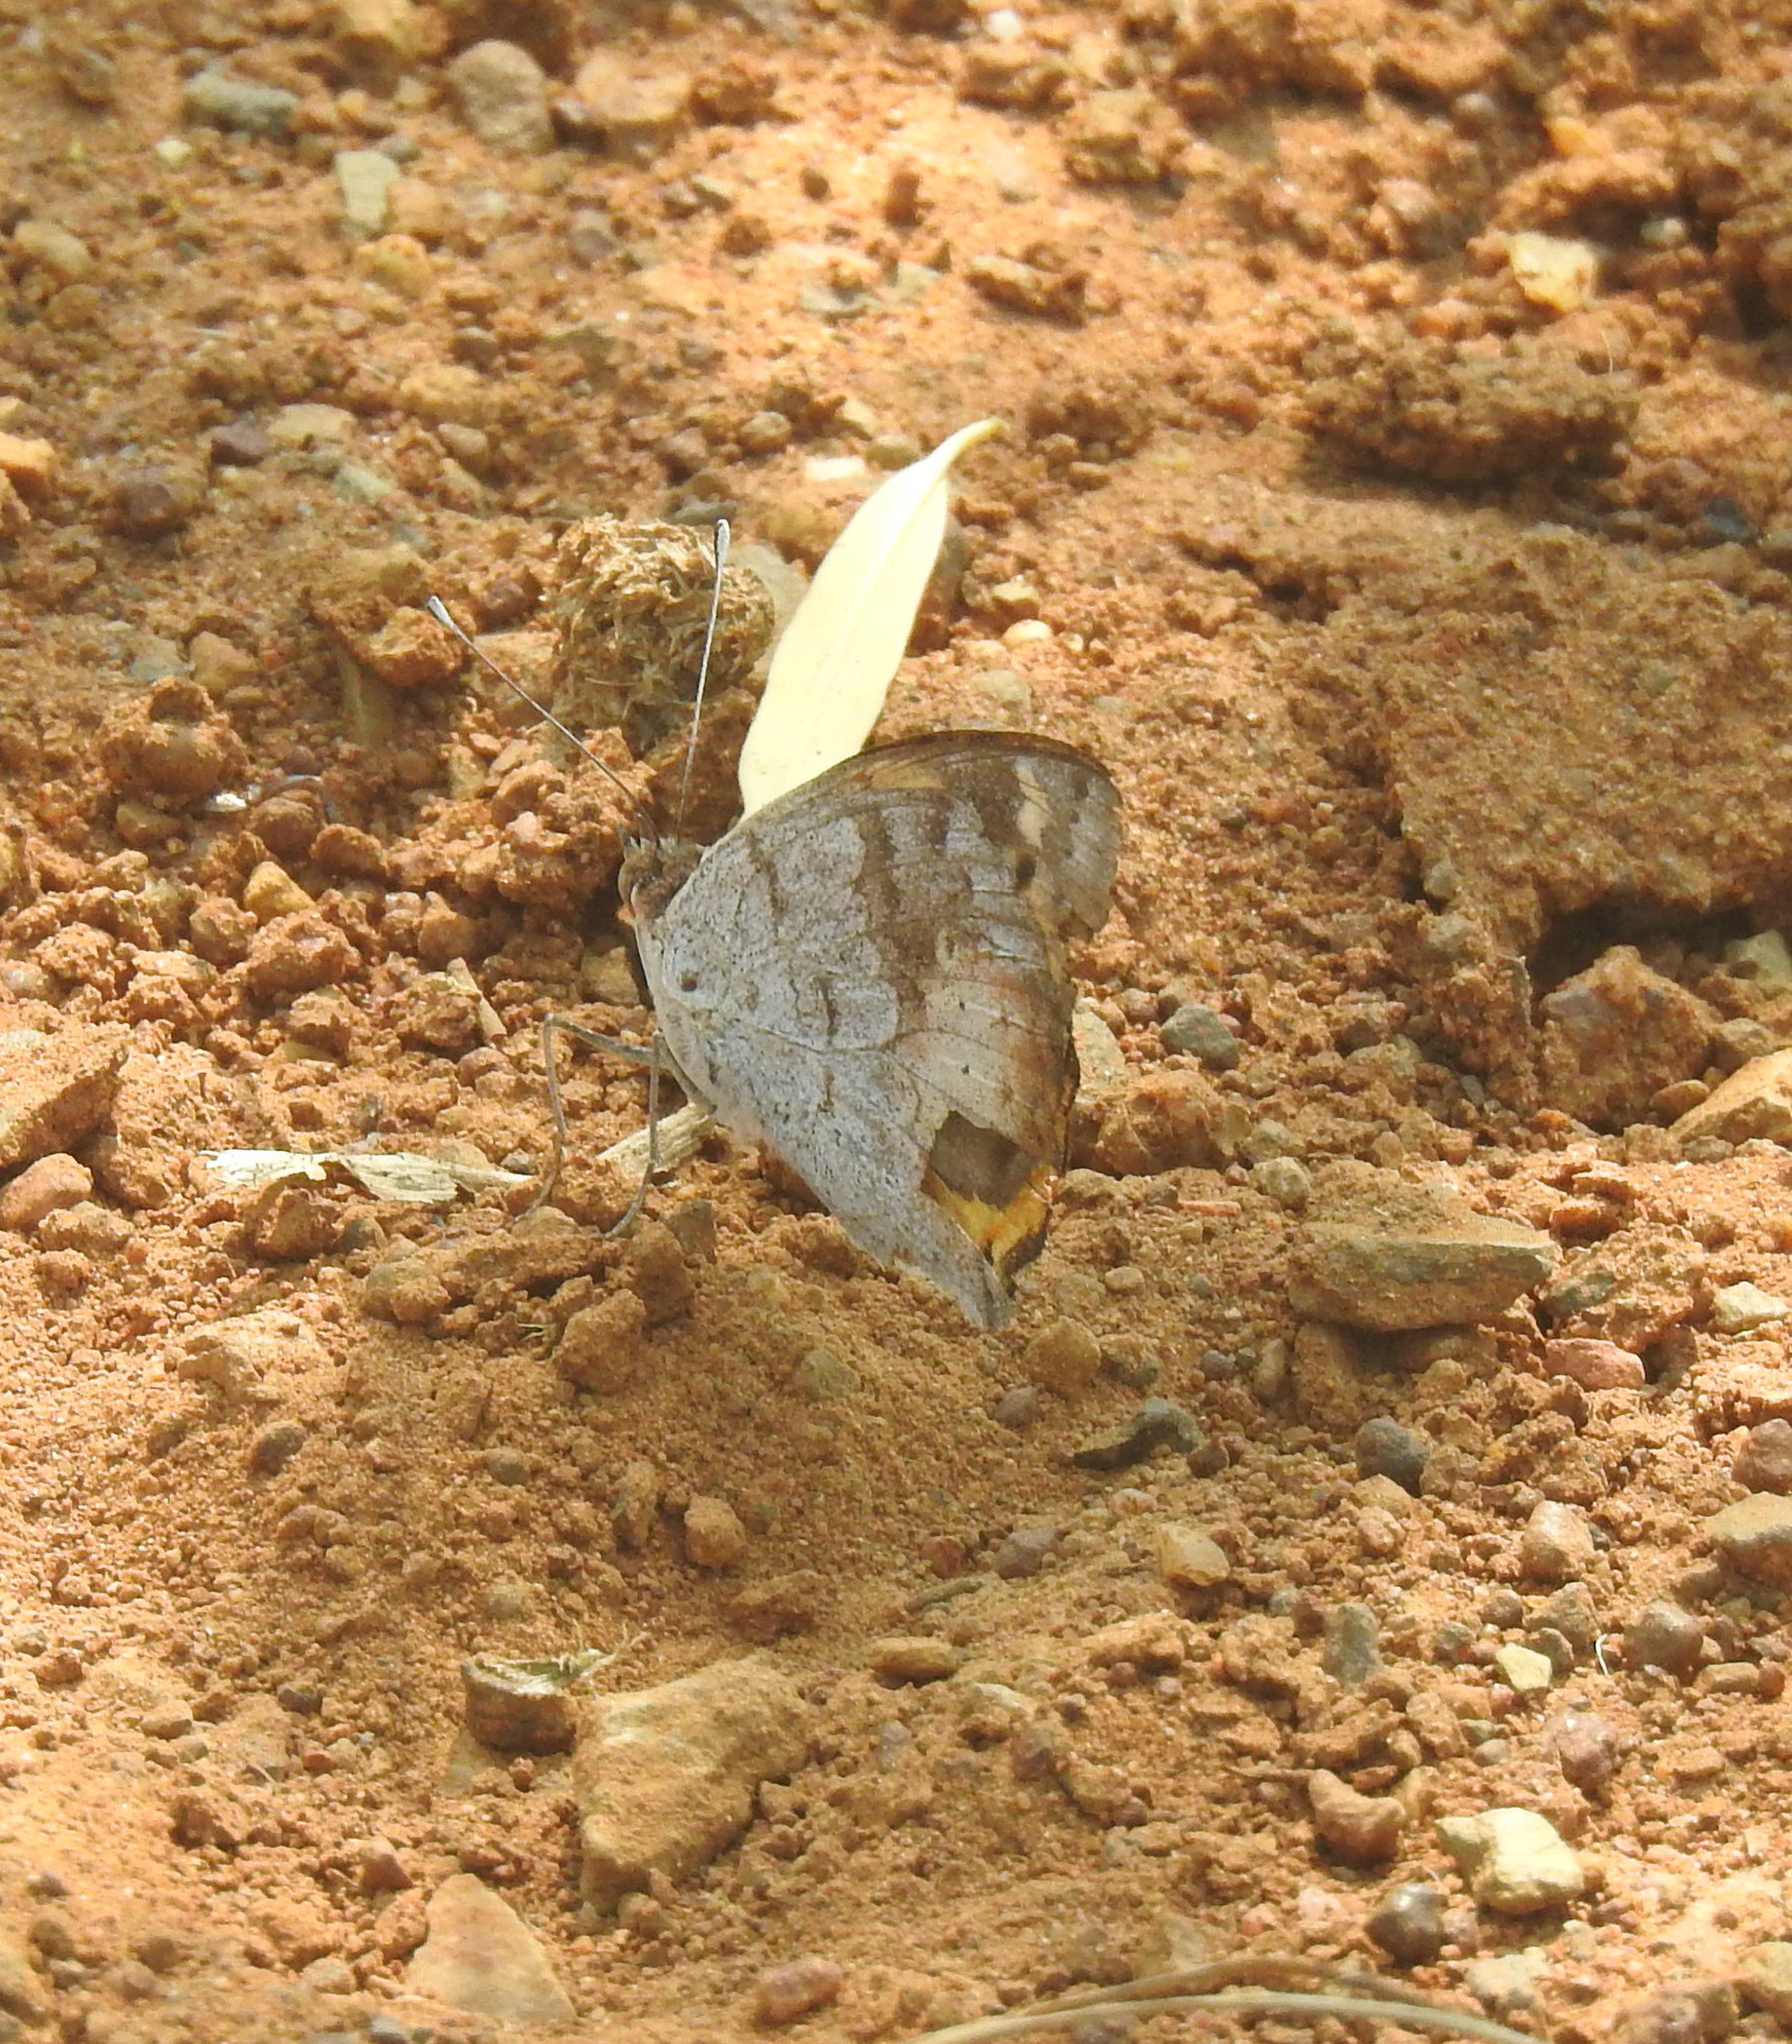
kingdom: Animalia
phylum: Arthropoda
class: Insecta
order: Lepidoptera
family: Nymphalidae
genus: Junonia
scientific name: Junonia hierta
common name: Yellow pansy
